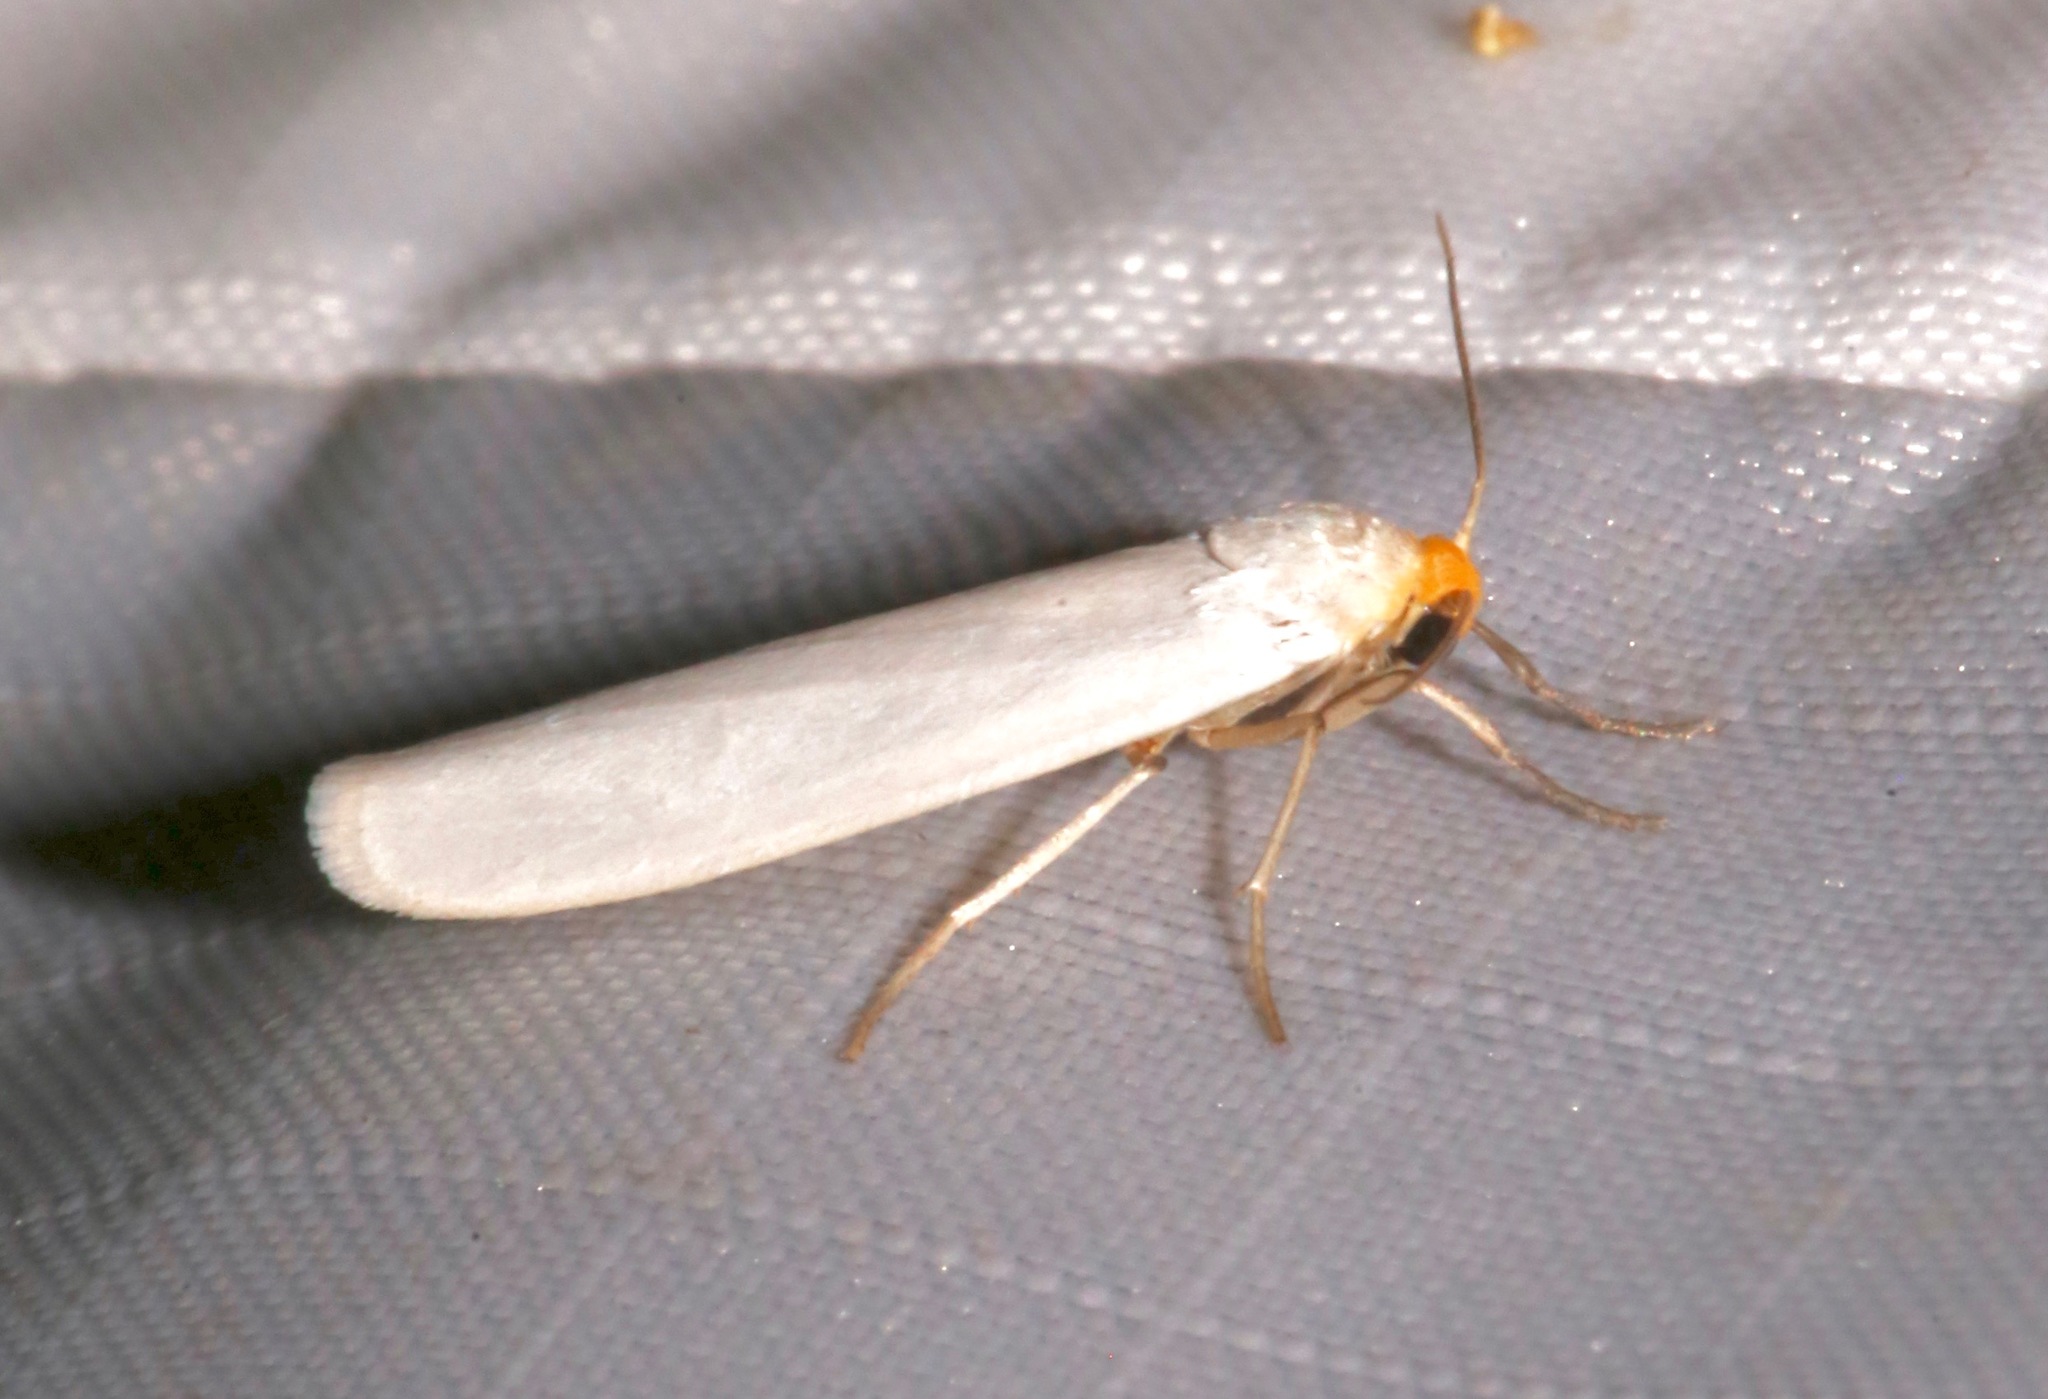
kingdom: Animalia
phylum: Arthropoda
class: Insecta
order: Lepidoptera
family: Erebidae
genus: Crambidia
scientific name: Crambidia cephalica
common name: Yellow-headed lichen moth
